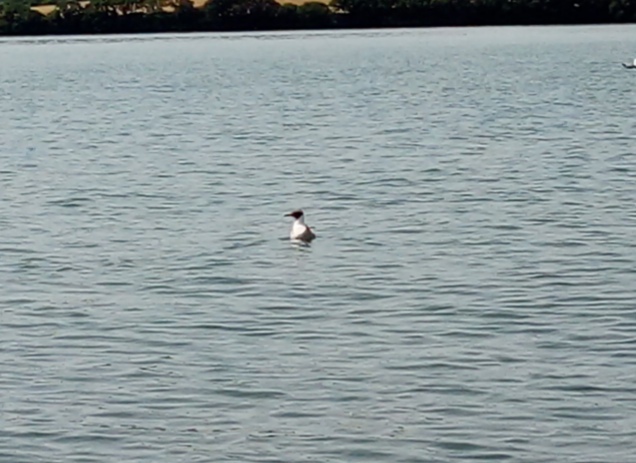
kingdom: Animalia
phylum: Chordata
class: Aves
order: Charadriiformes
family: Laridae
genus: Chroicocephalus
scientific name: Chroicocephalus ridibundus
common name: Black-headed gull
